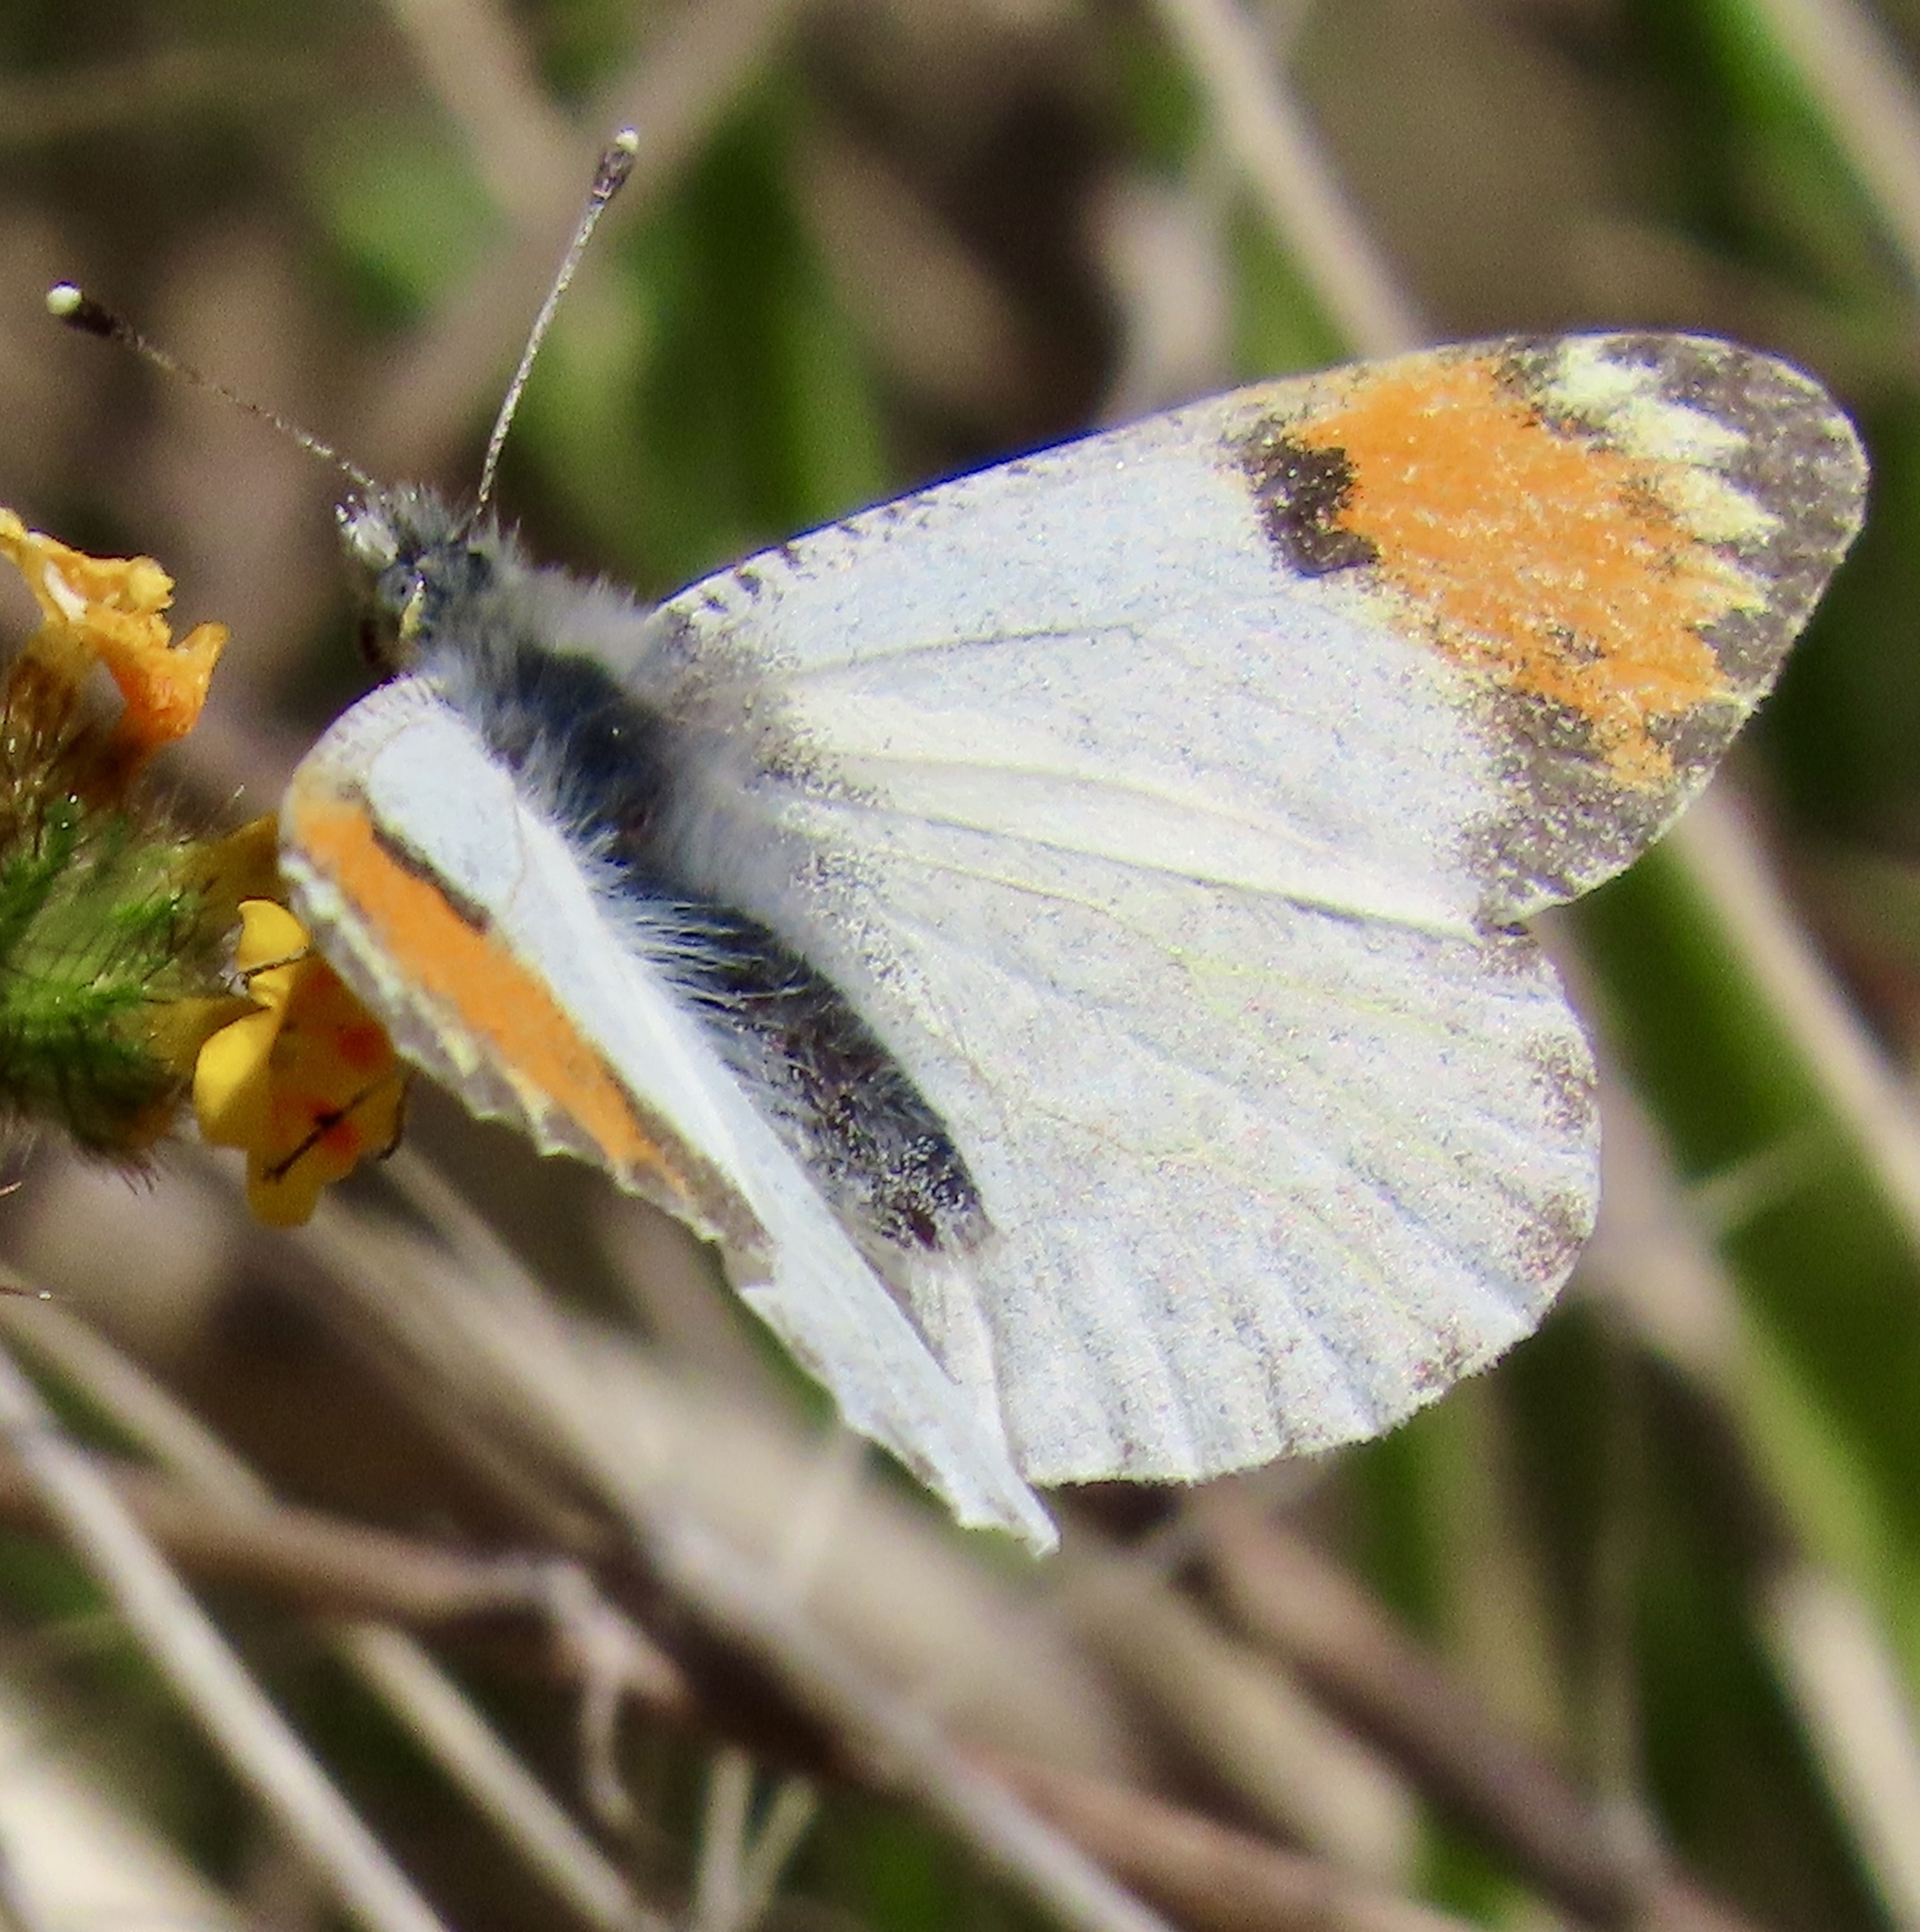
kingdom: Animalia
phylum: Arthropoda
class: Insecta
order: Lepidoptera
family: Pieridae
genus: Anthocharis
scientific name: Anthocharis sara
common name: Sara's orangetip
